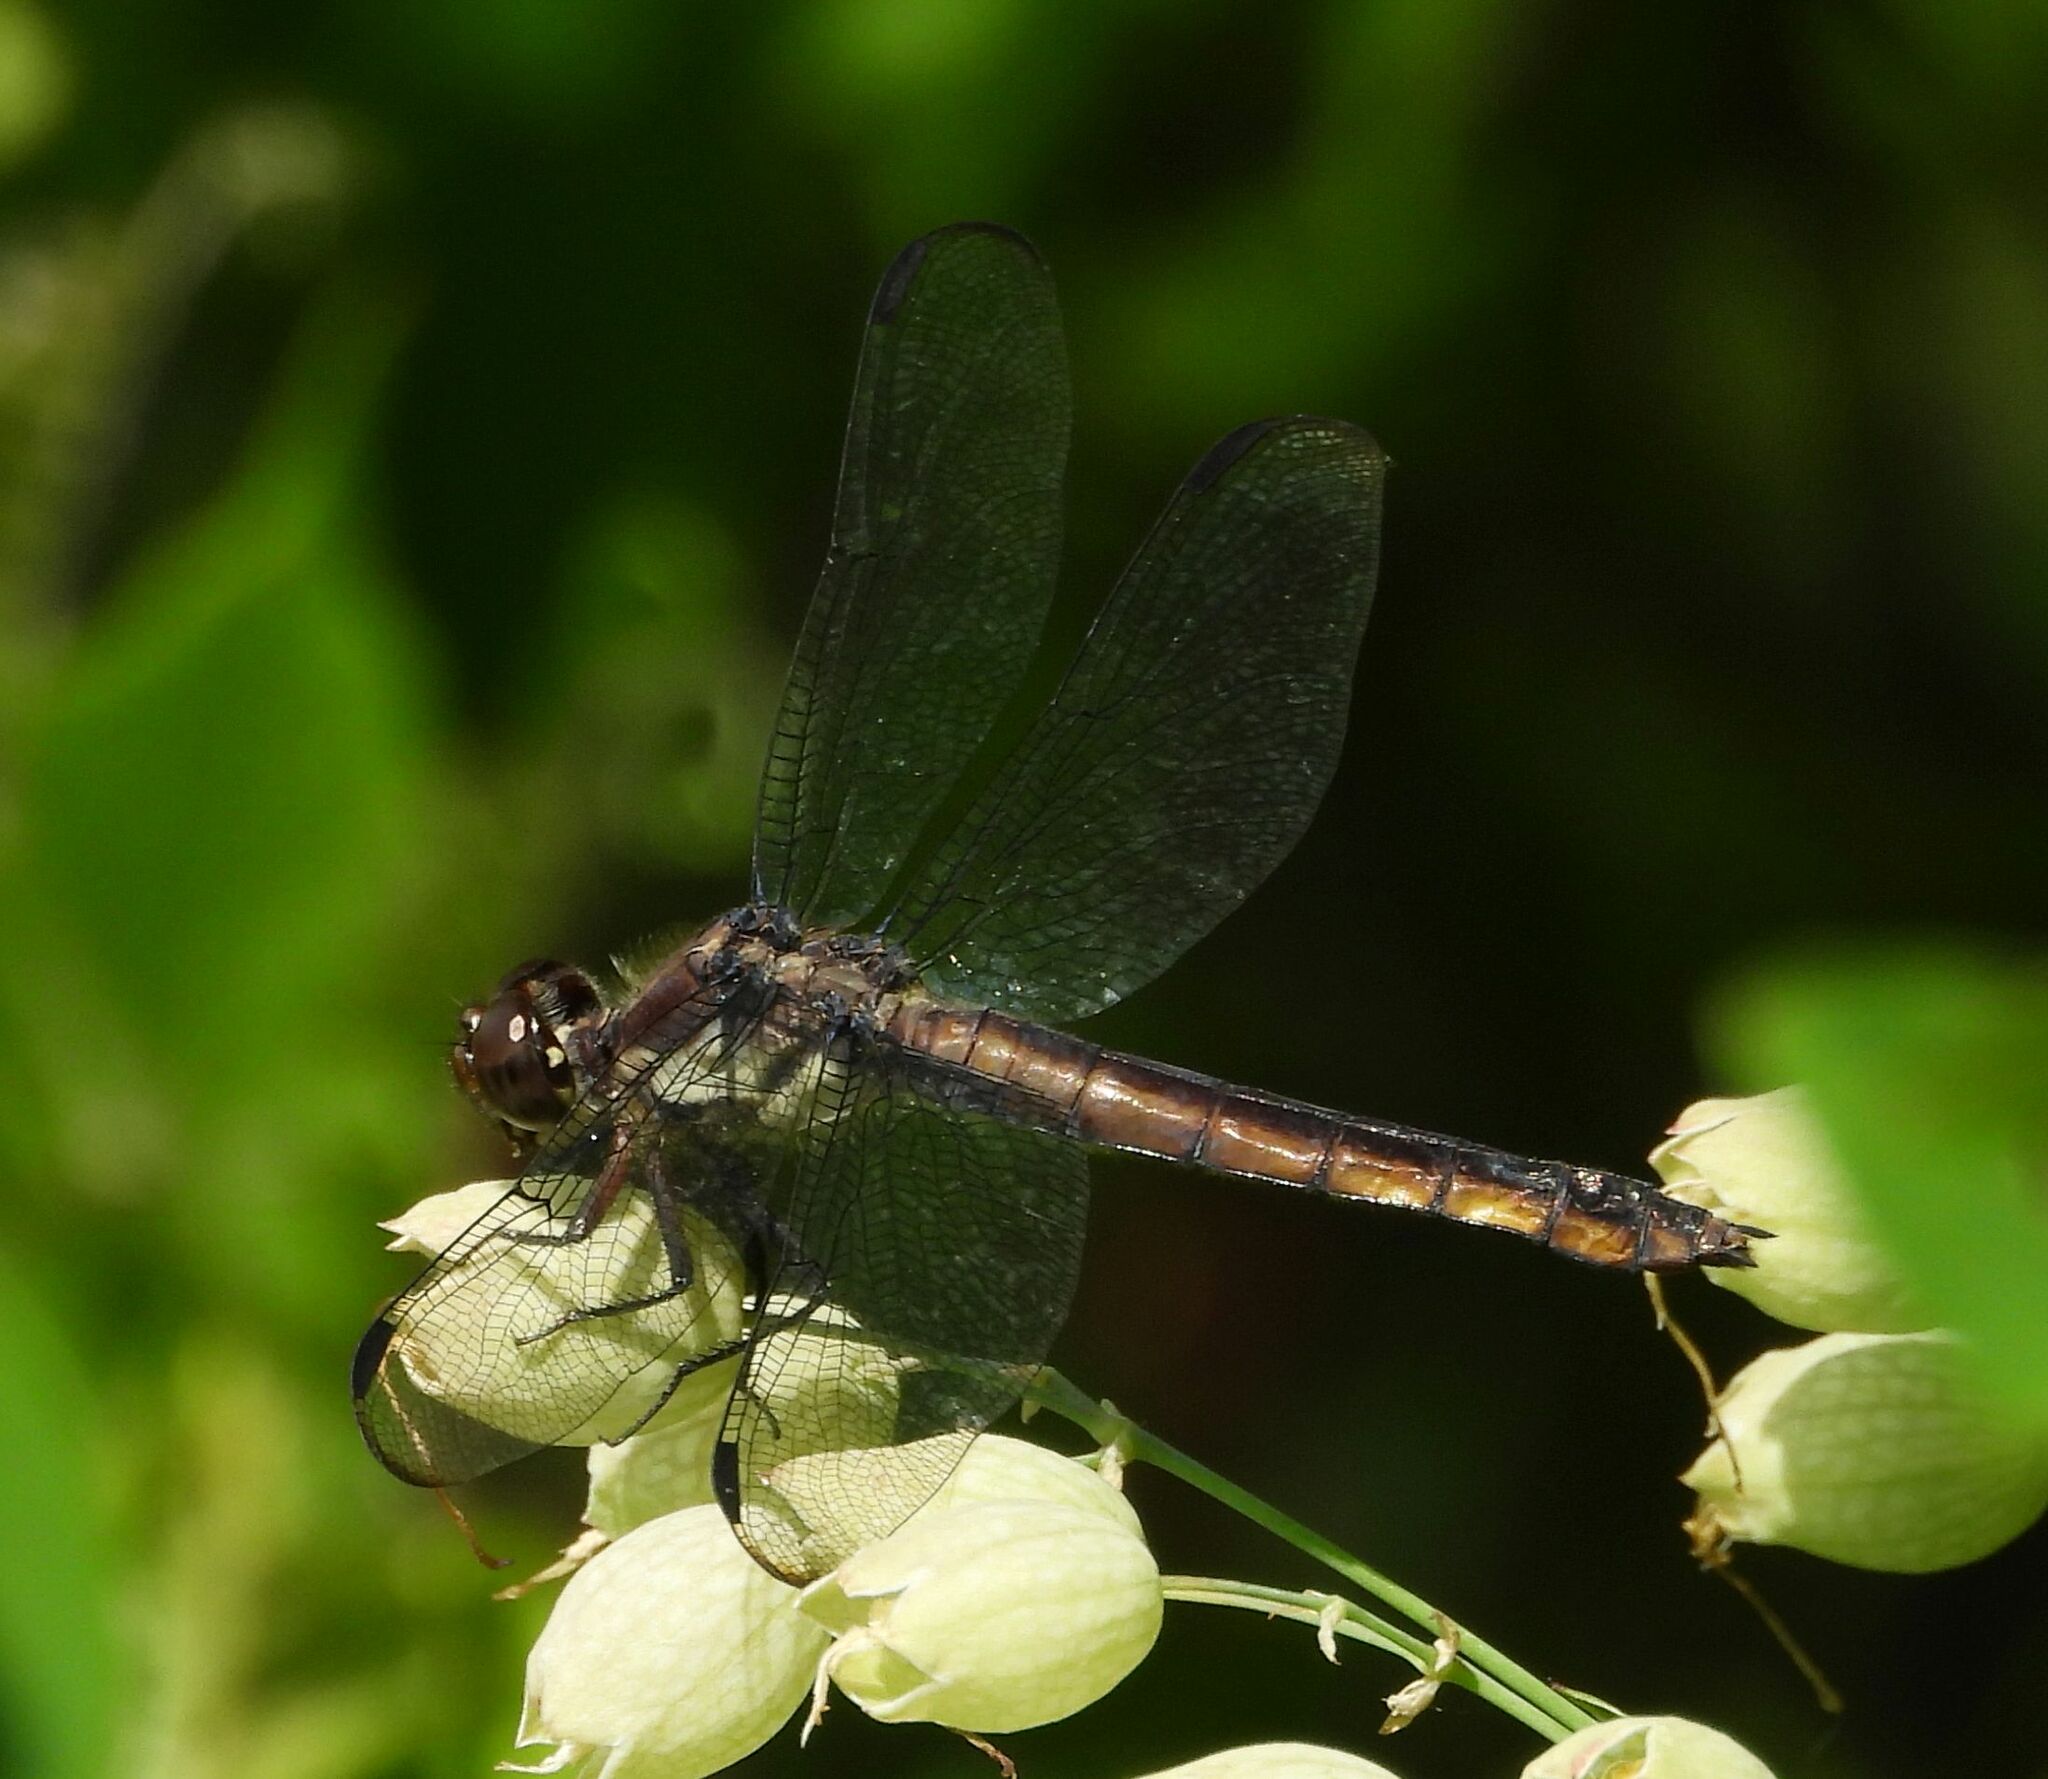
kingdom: Animalia
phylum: Arthropoda
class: Insecta
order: Odonata
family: Libellulidae
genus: Libellula
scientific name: Libellula incesta
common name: Slaty skimmer
